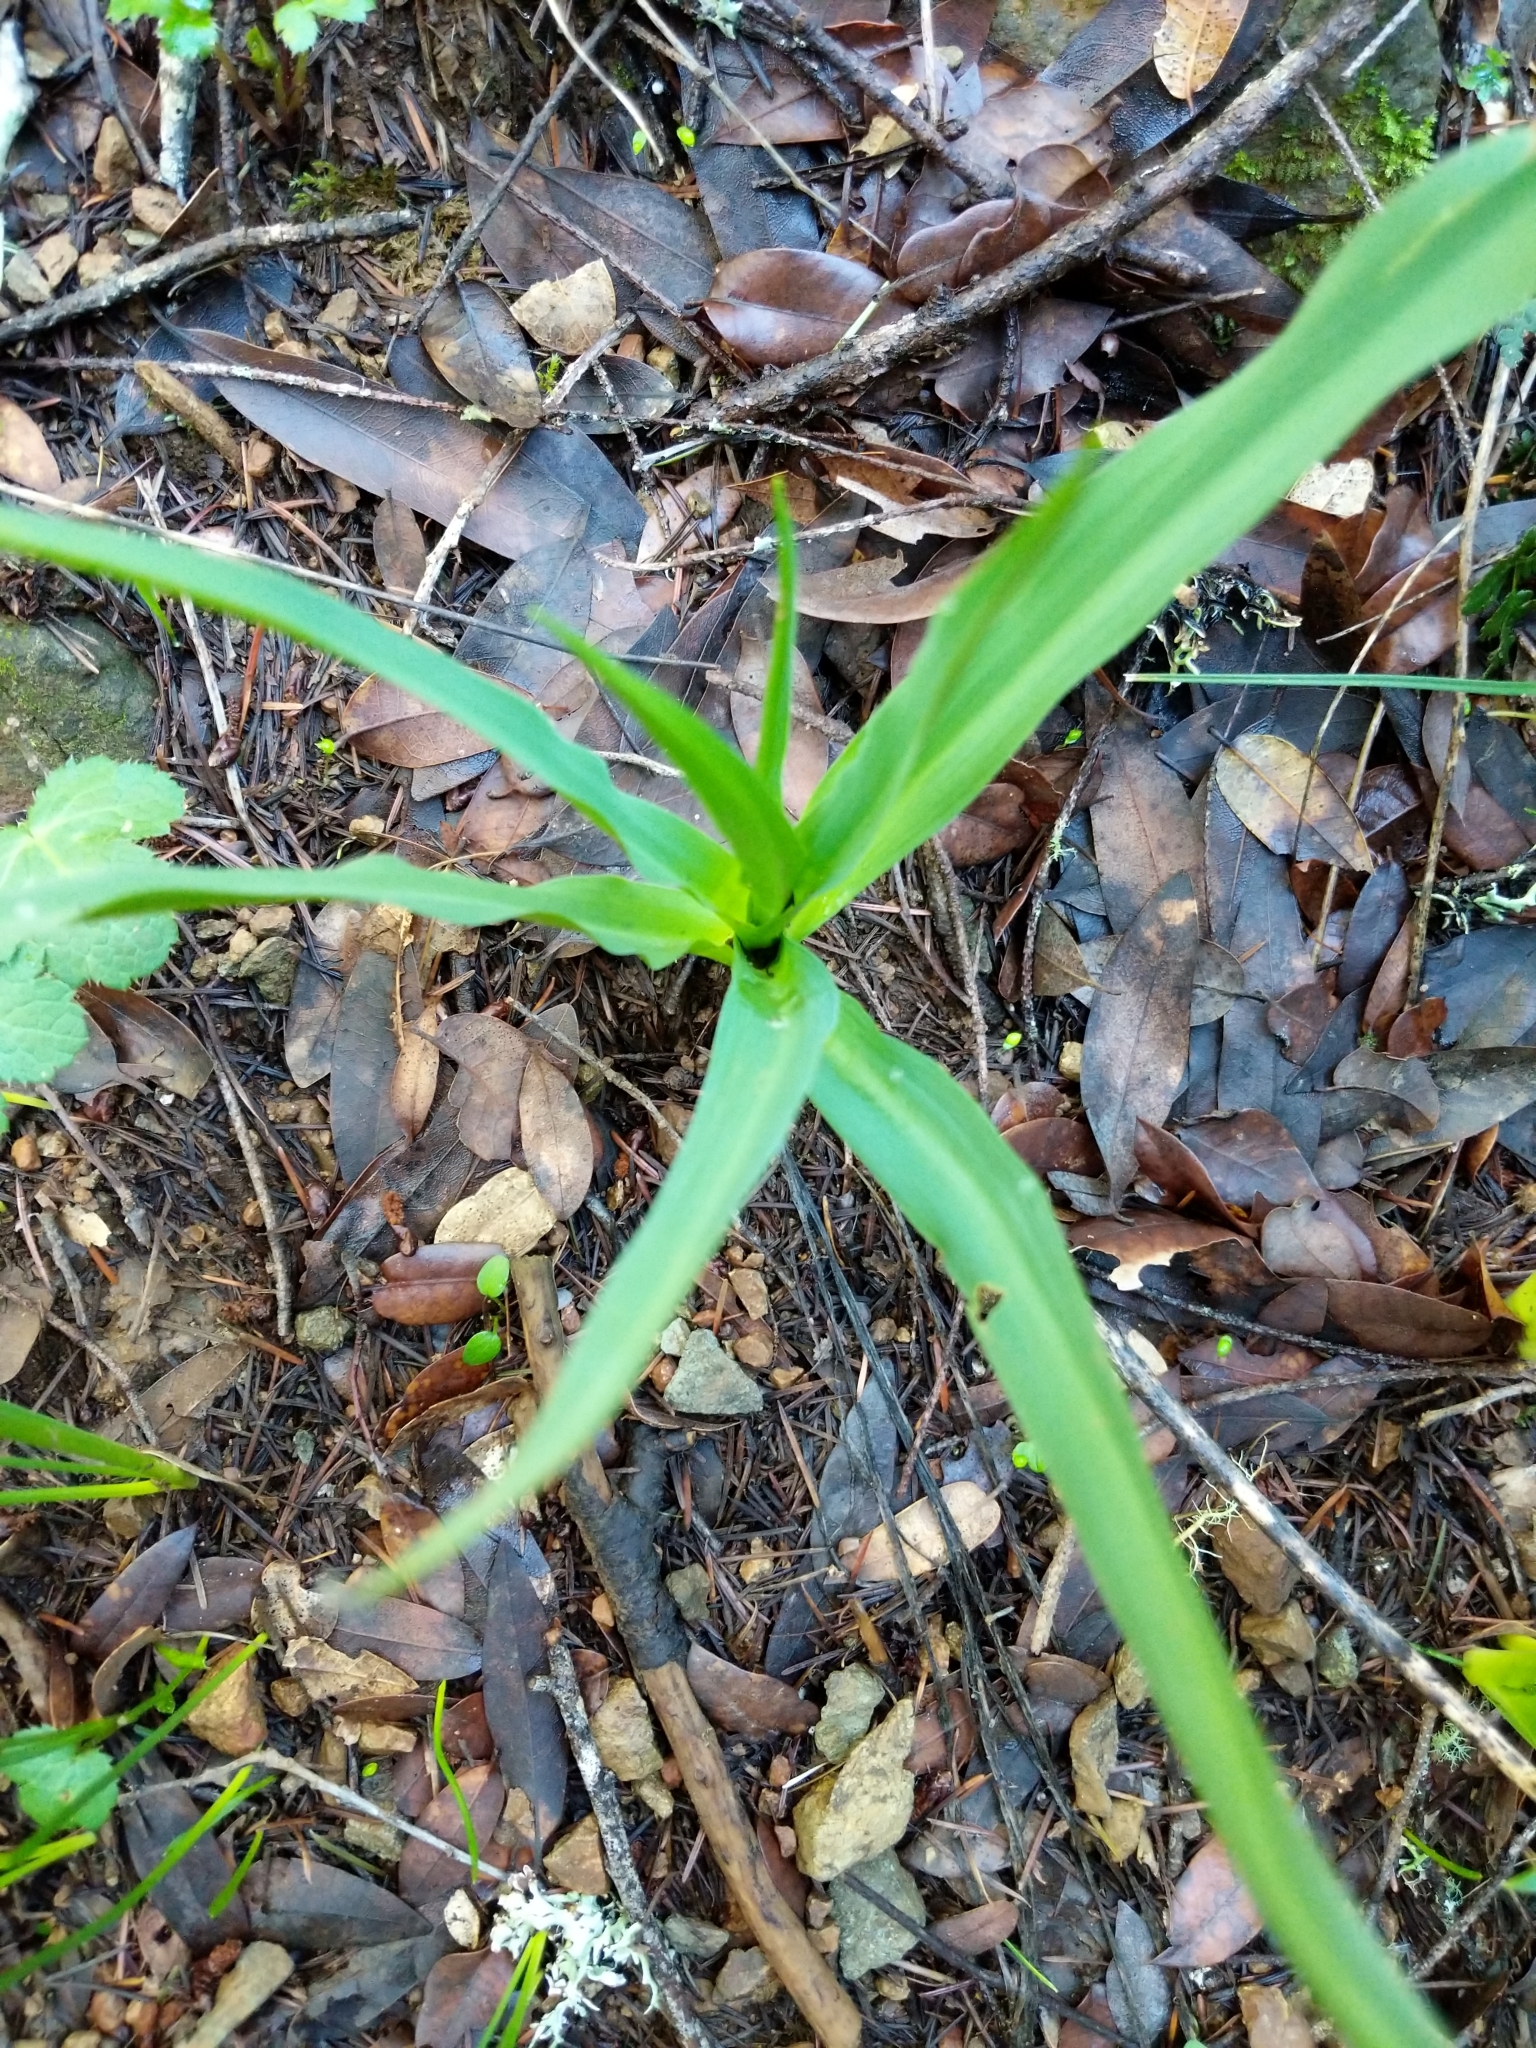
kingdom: Plantae
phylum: Tracheophyta
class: Liliopsida
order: Asparagales
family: Asparagaceae
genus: Chlorogalum
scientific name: Chlorogalum pomeridianum
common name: Amole
